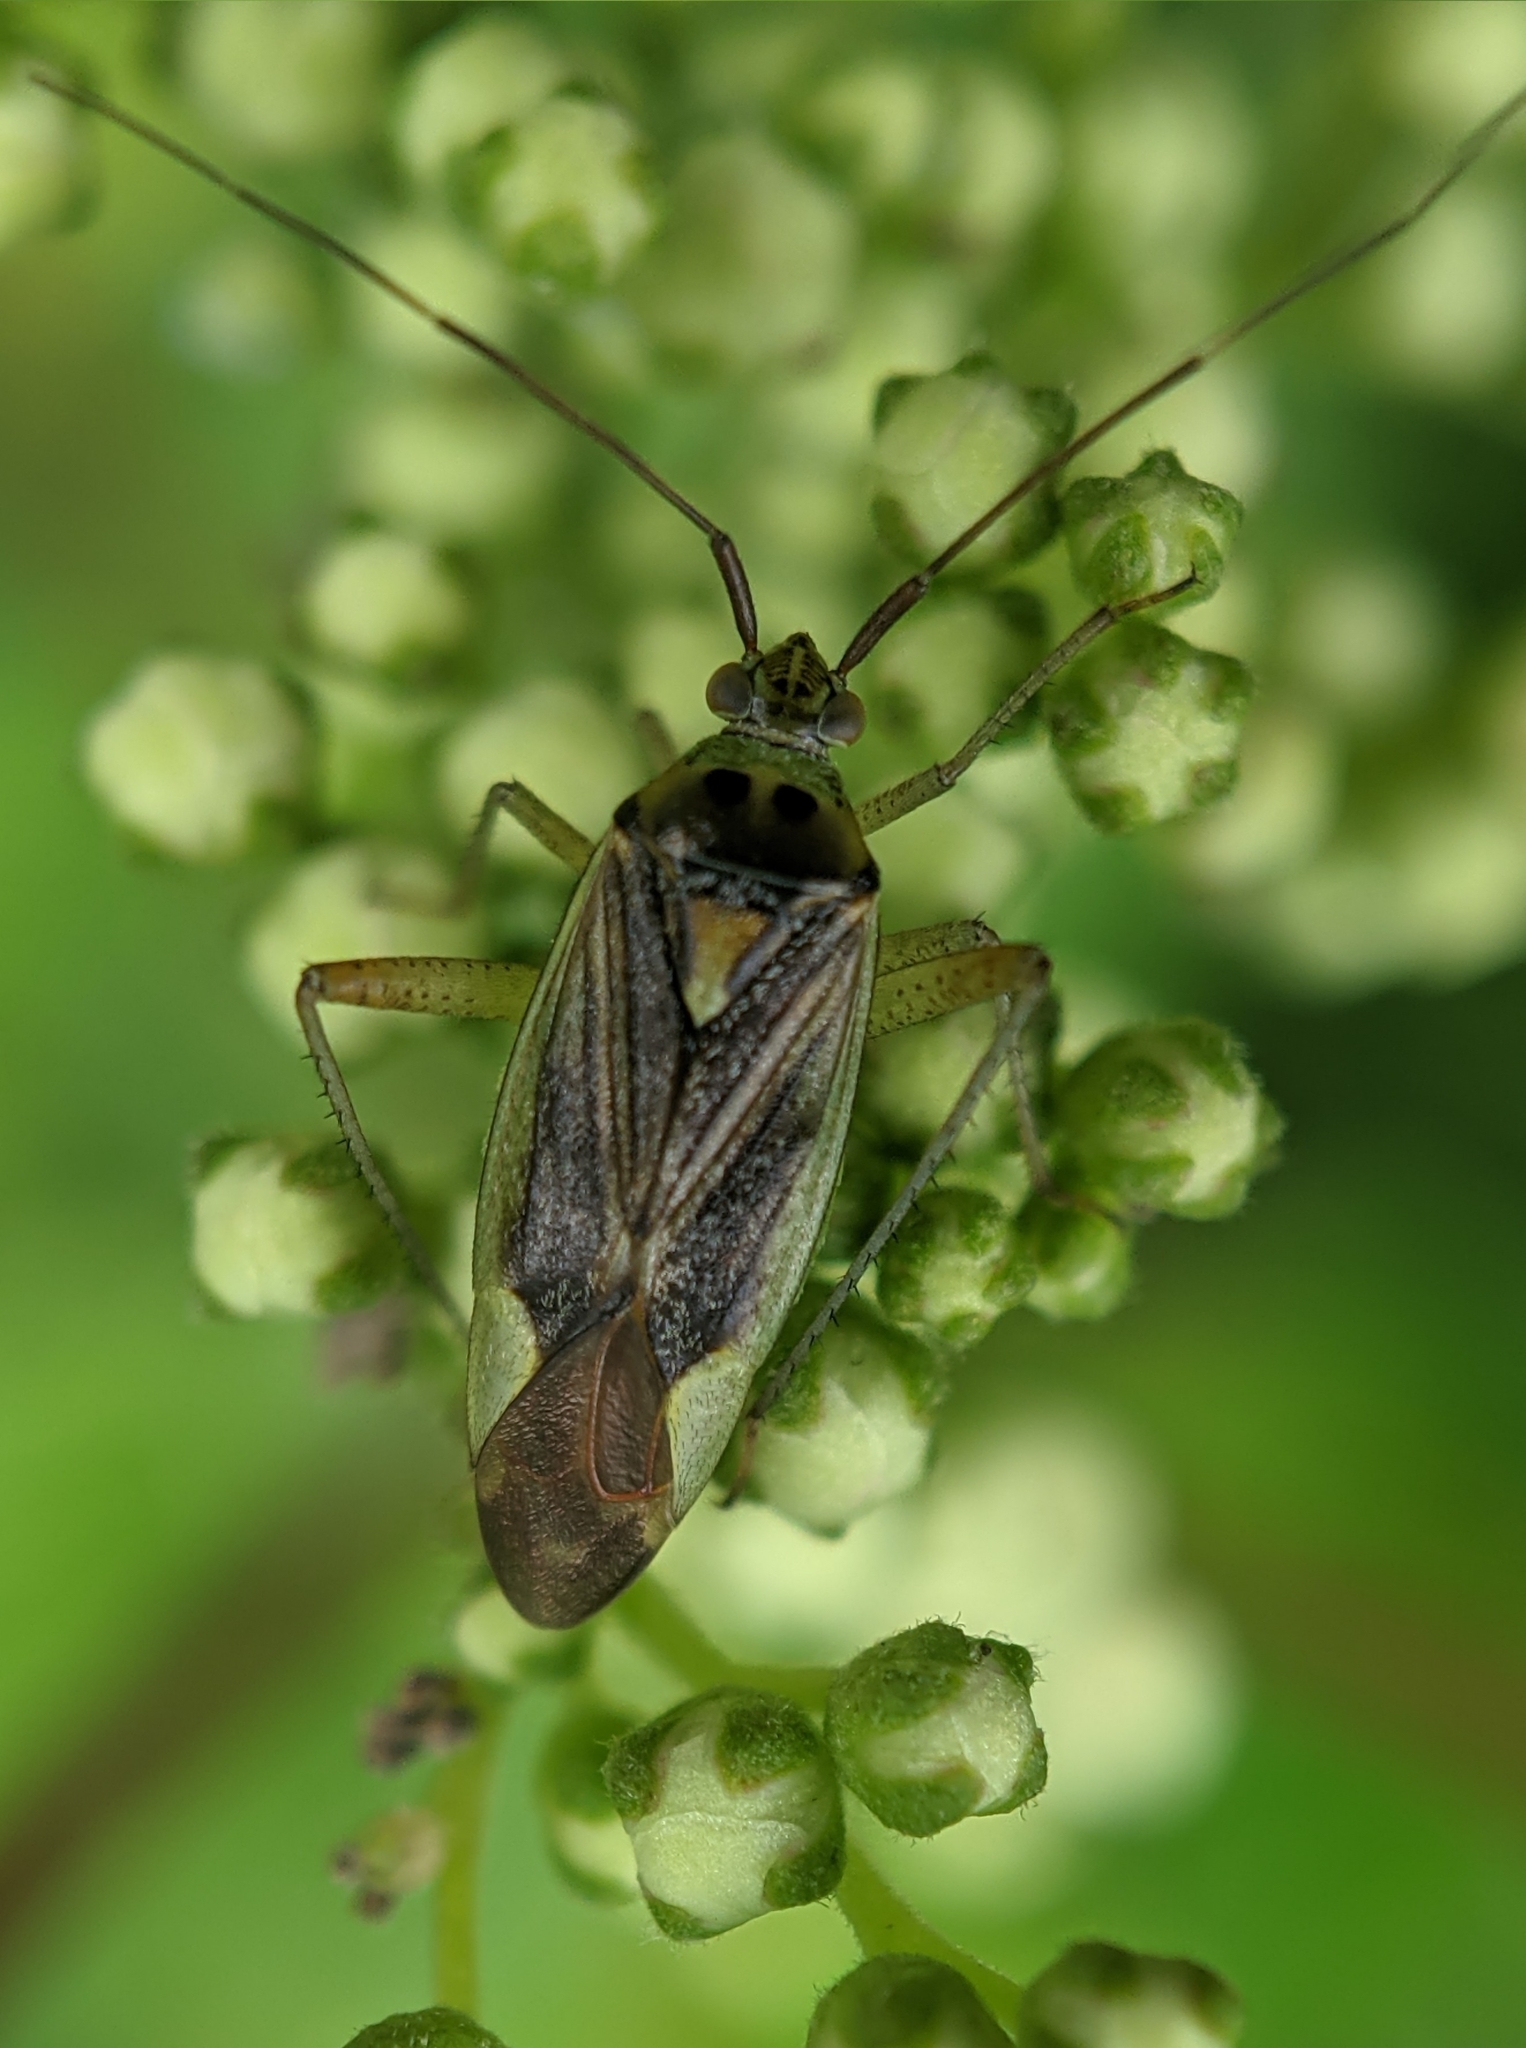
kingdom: Animalia
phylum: Arthropoda
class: Insecta
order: Hemiptera
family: Miridae
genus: Closterotomus
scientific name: Closterotomus trivialis
